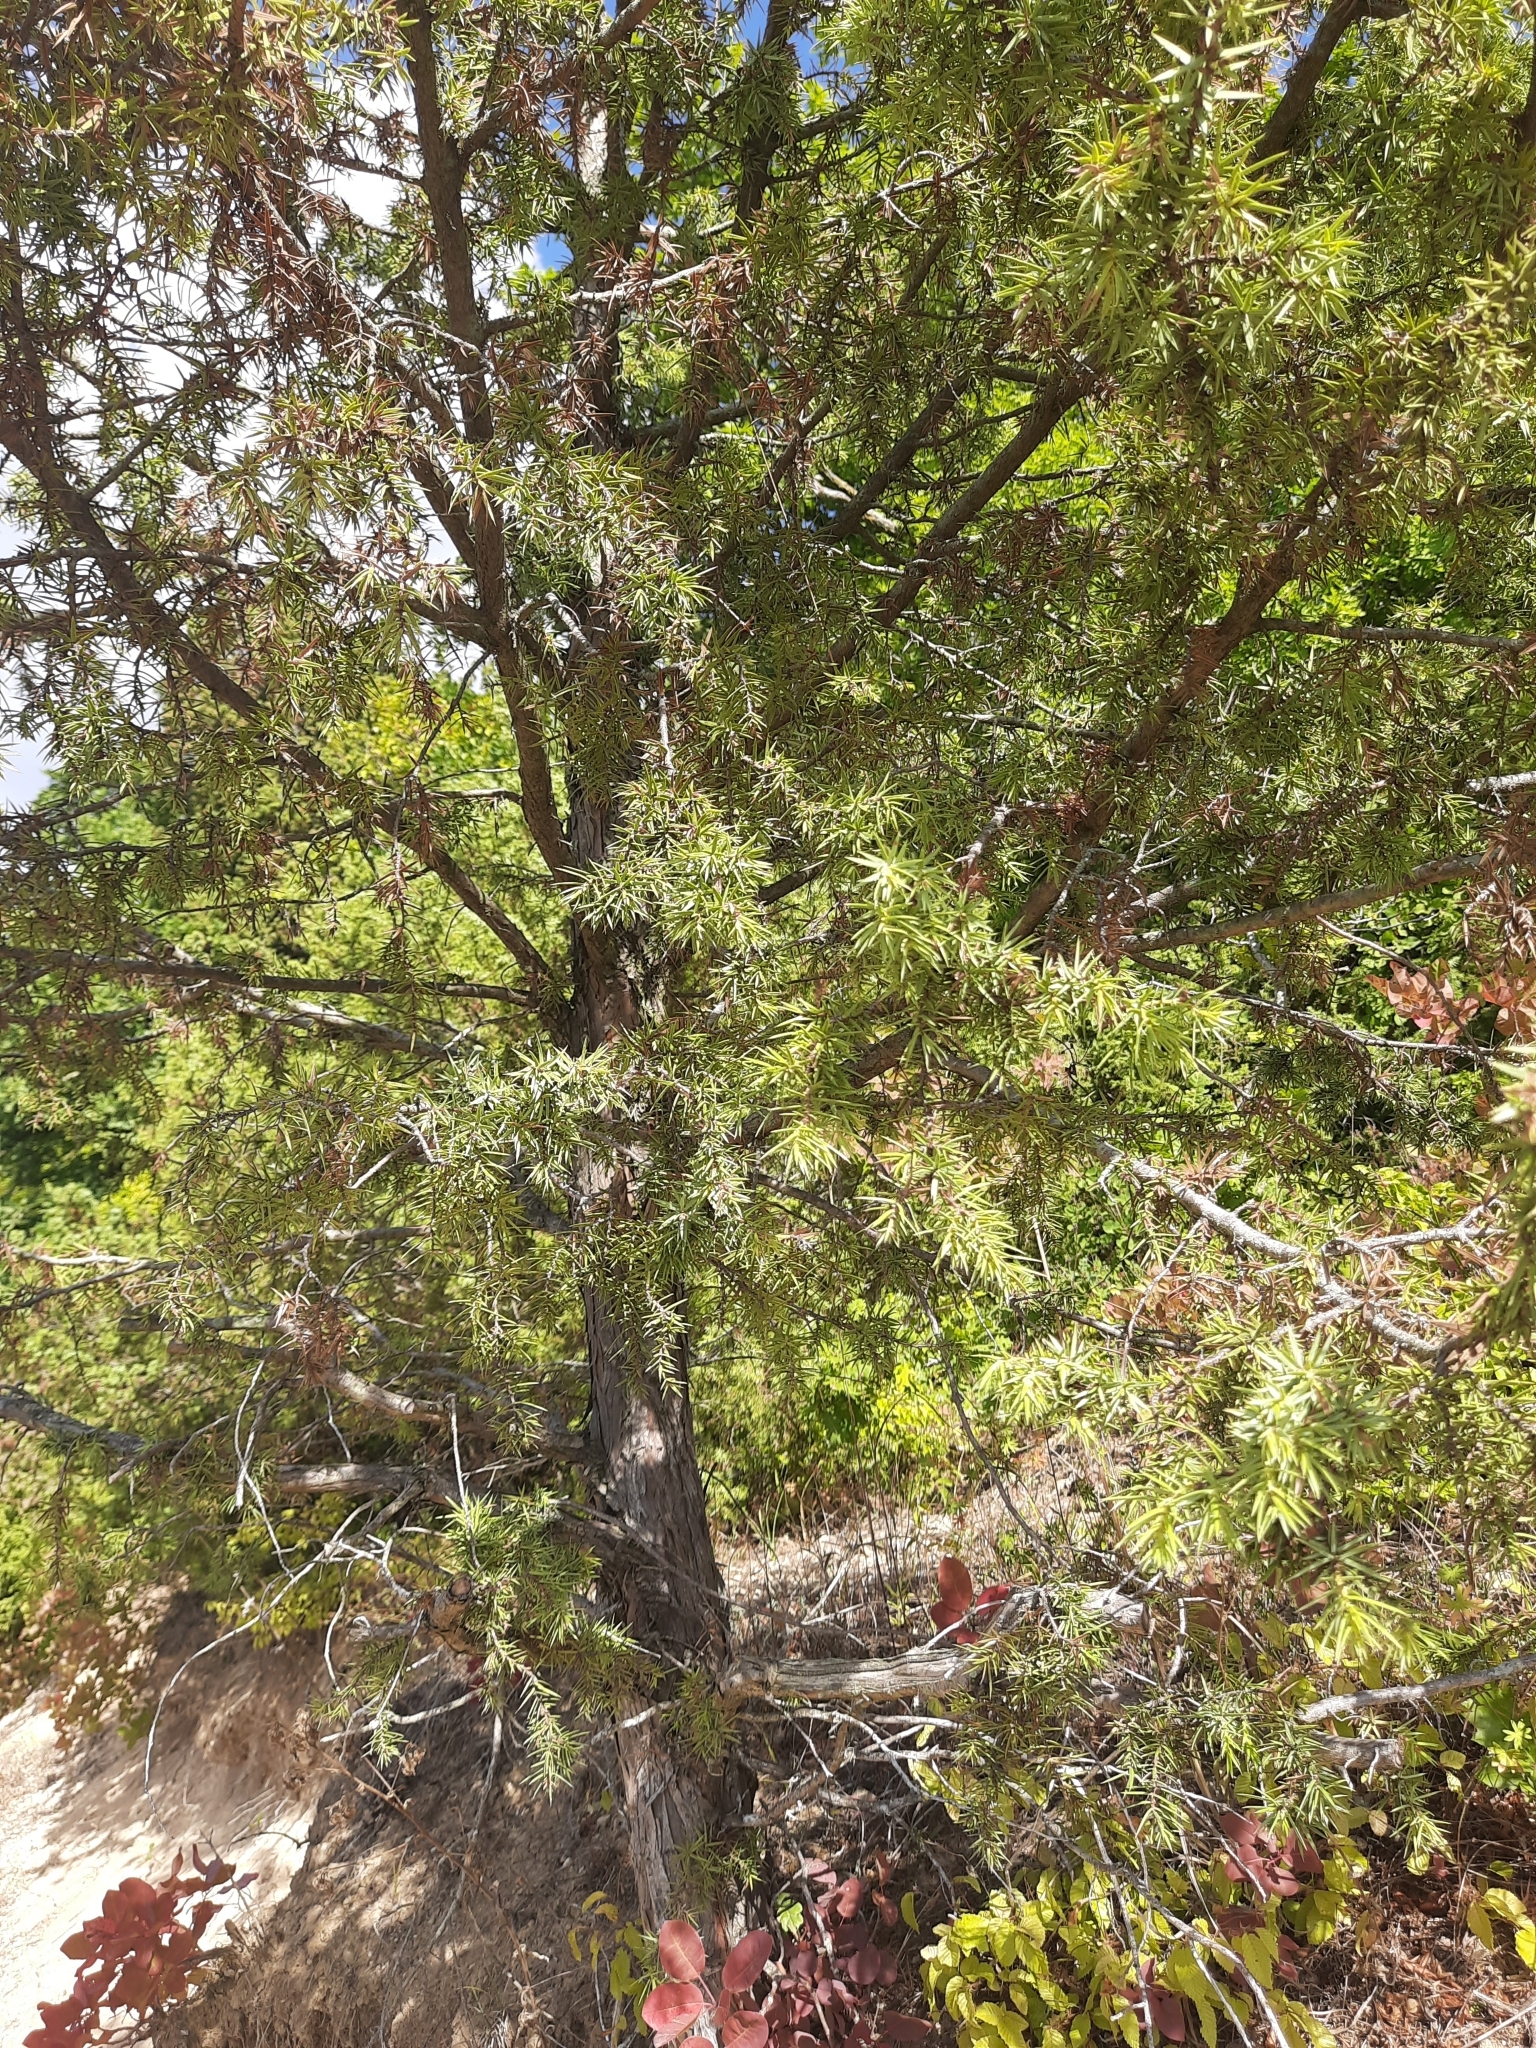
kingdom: Plantae
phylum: Tracheophyta
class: Pinopsida
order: Pinales
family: Cupressaceae
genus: Juniperus
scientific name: Juniperus oxycedrus
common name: Prickly juniper
